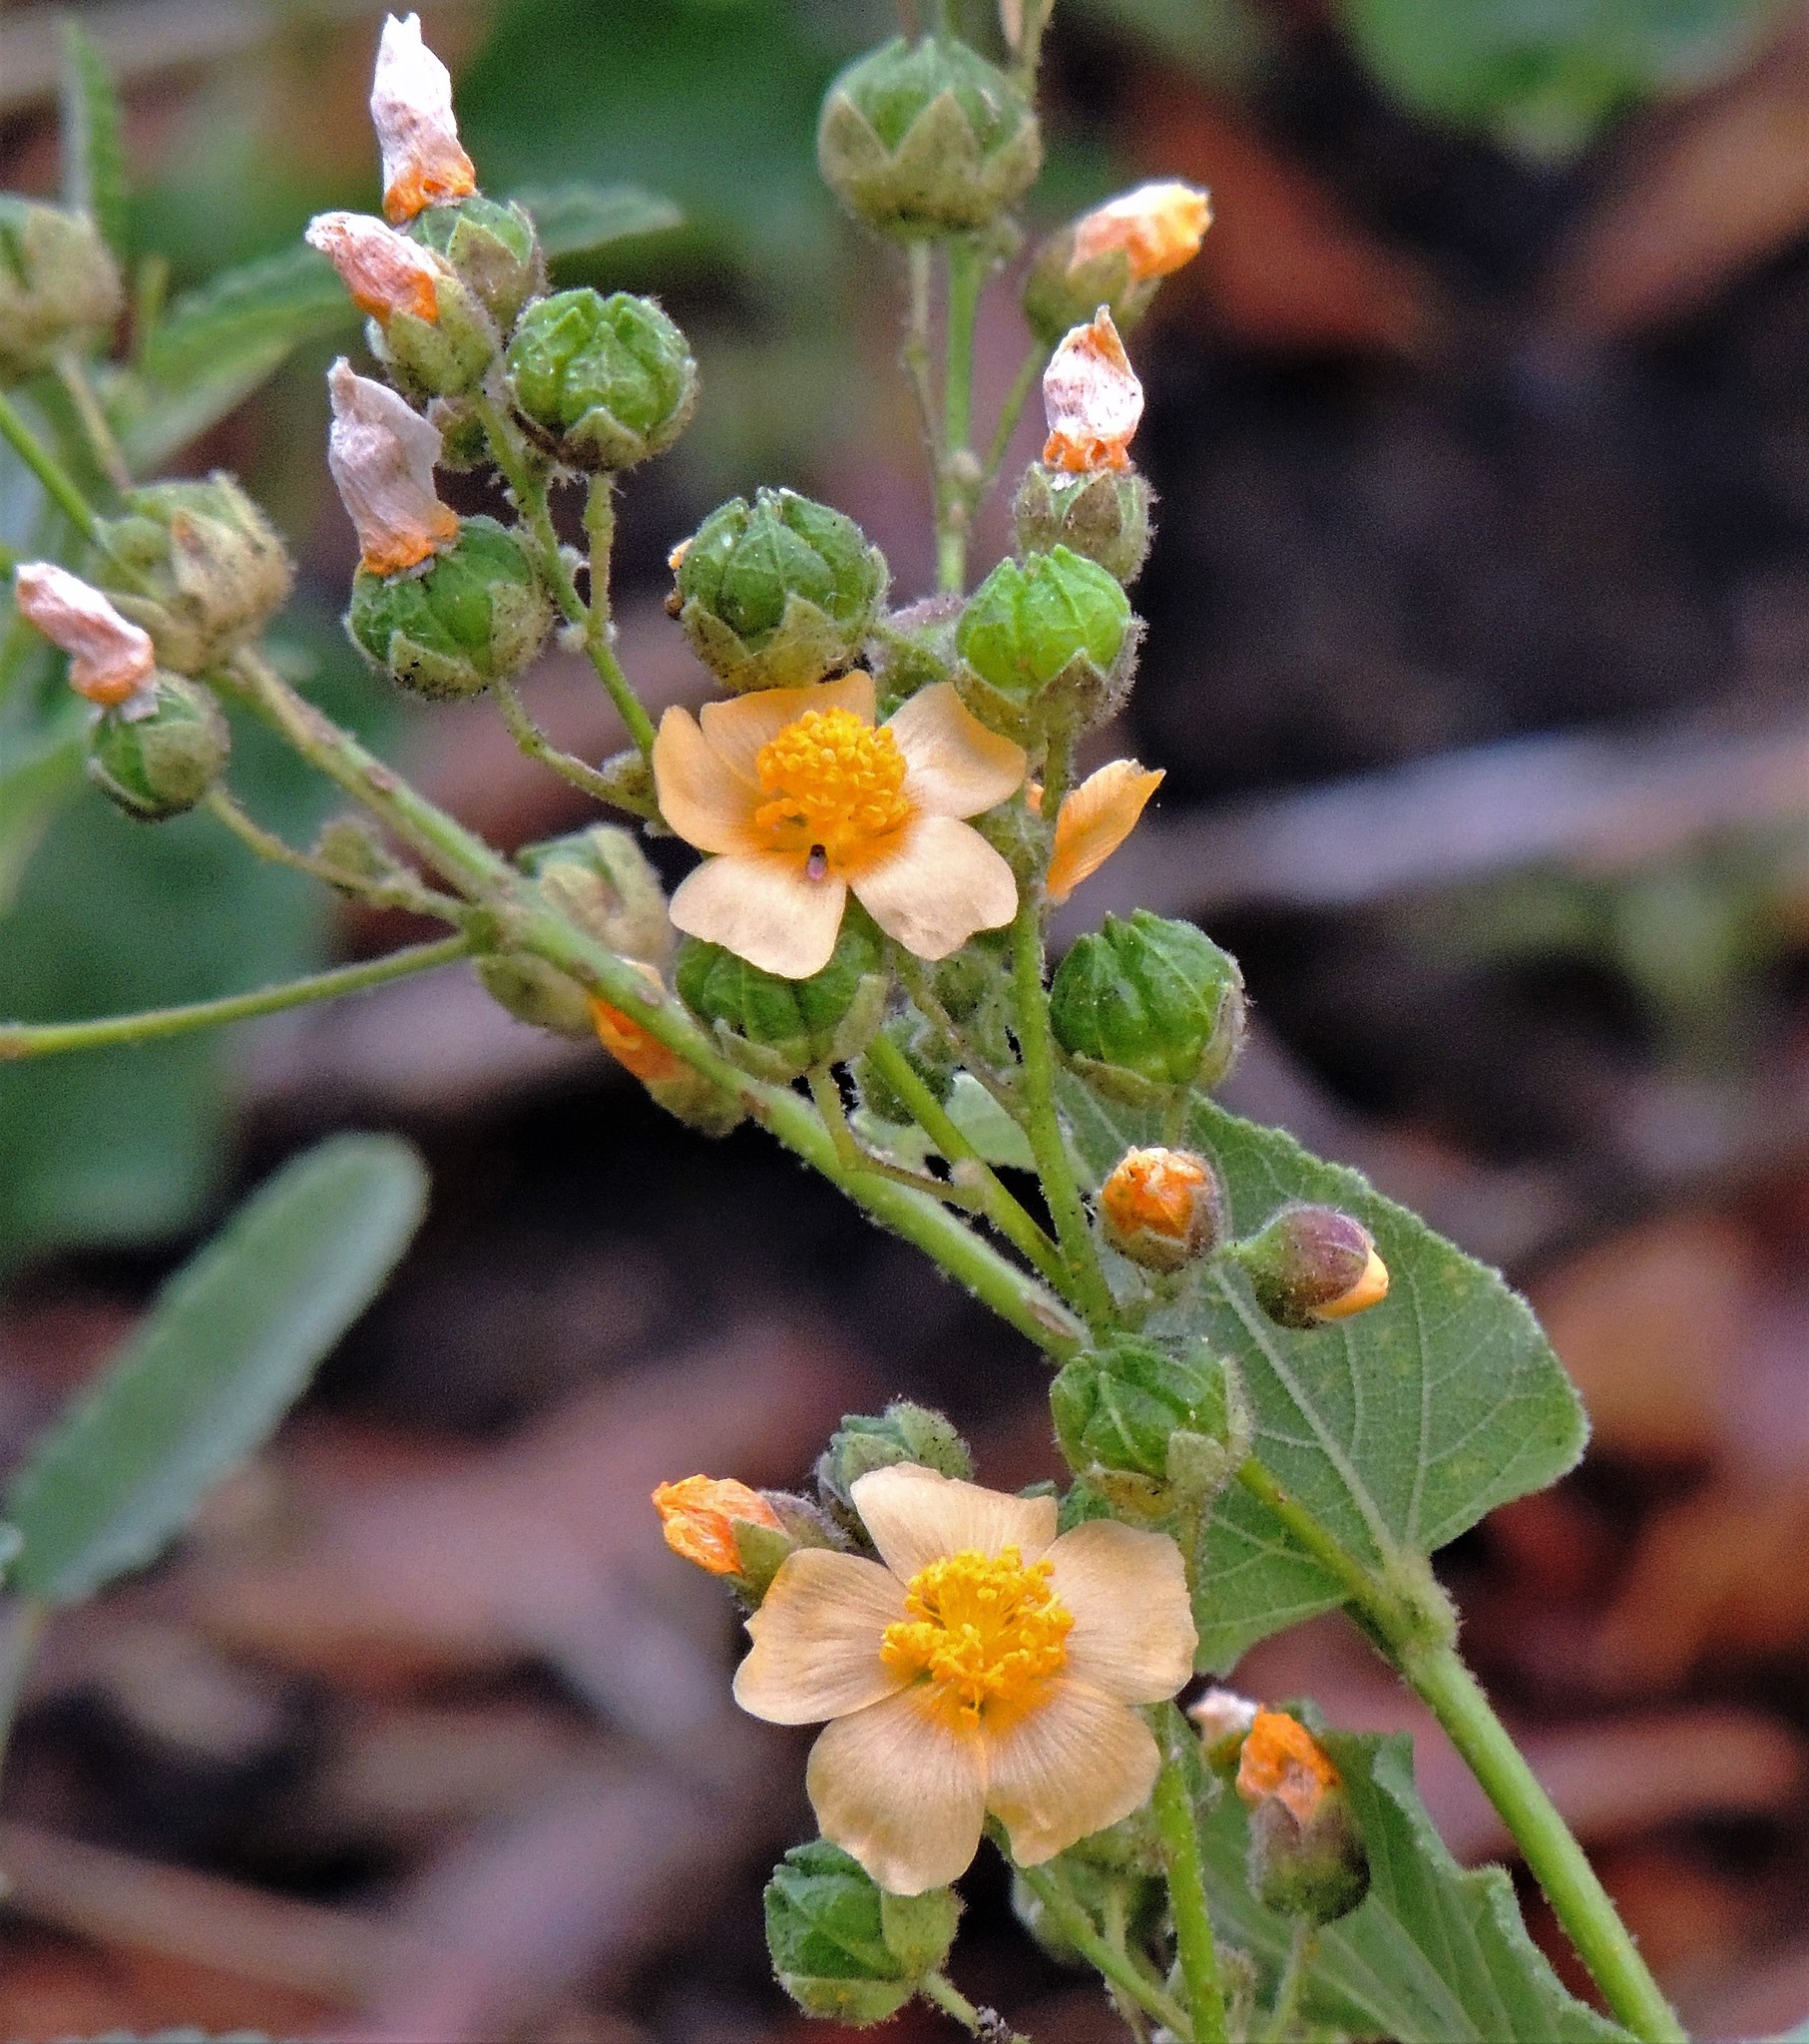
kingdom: Plantae
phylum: Tracheophyta
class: Magnoliopsida
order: Malvales
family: Malvaceae
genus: Wissadula
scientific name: Wissadula gymnanthemum
